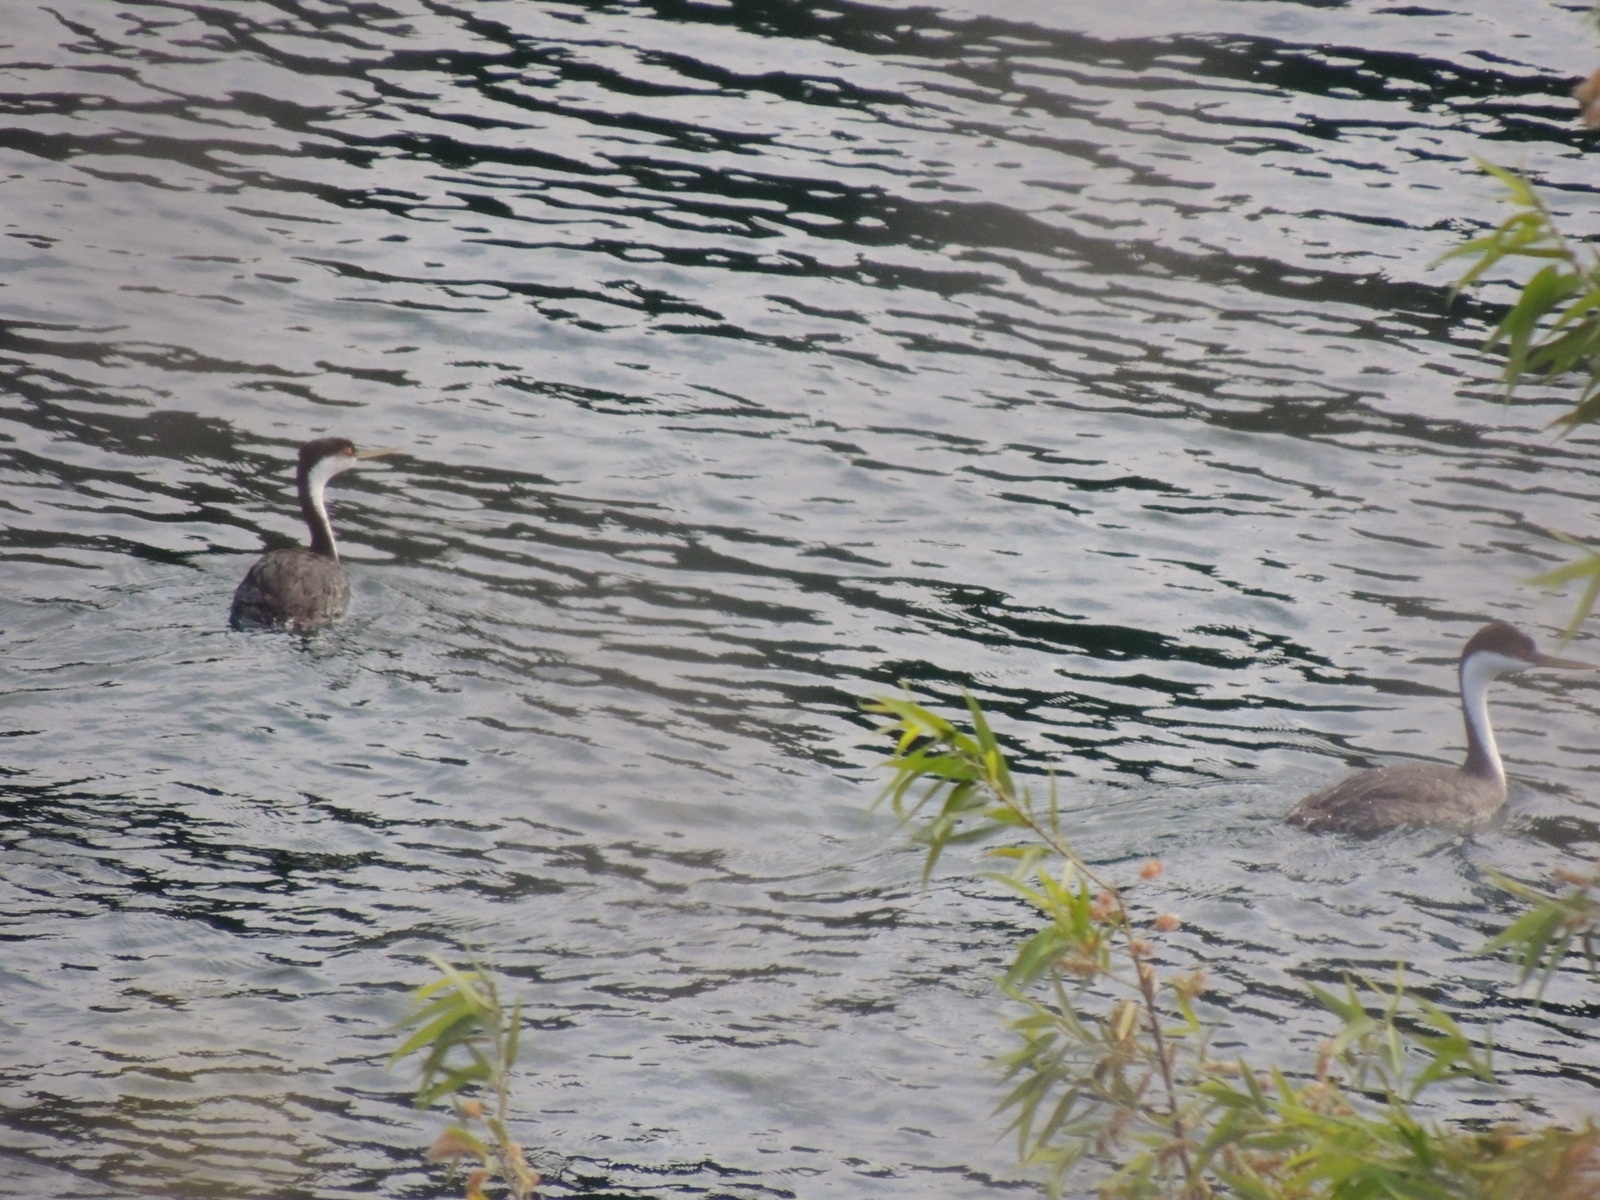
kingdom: Animalia
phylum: Chordata
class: Aves
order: Podicipediformes
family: Podicipedidae
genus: Aechmophorus
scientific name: Aechmophorus occidentalis
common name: Western grebe
